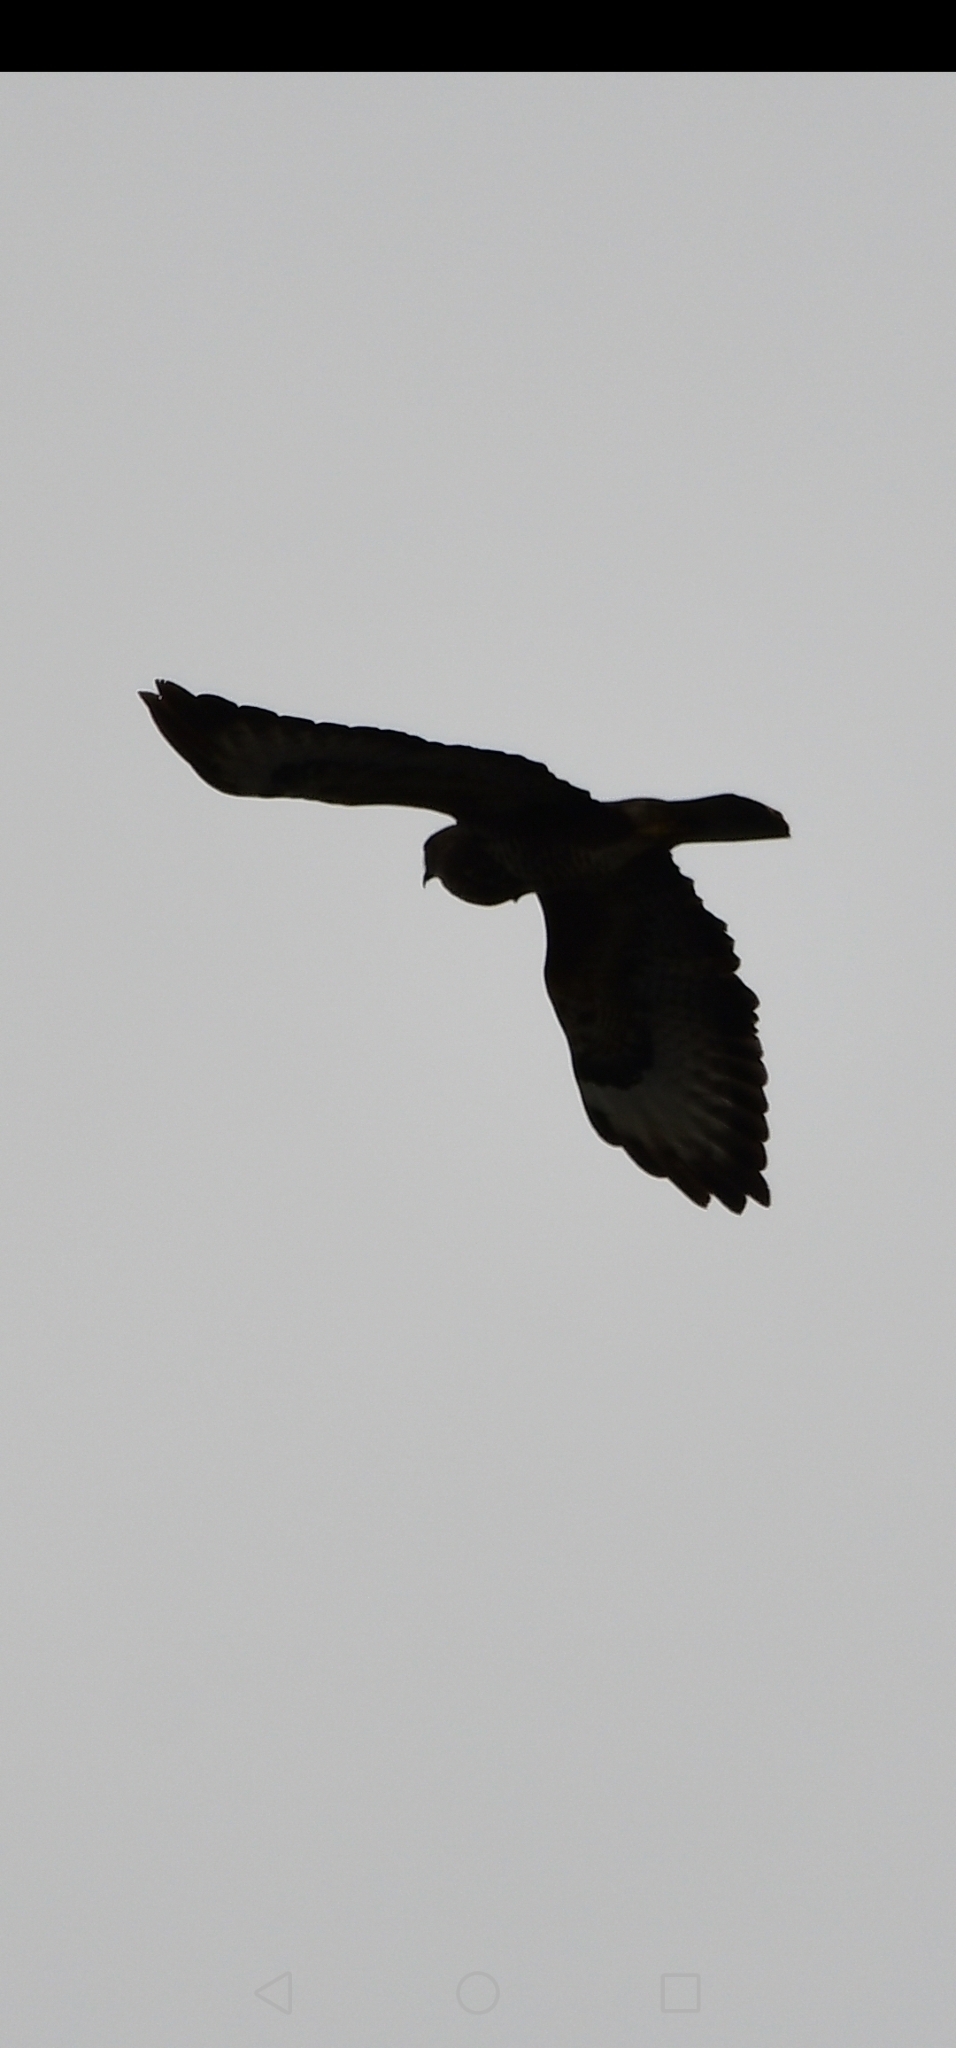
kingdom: Animalia
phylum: Chordata
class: Aves
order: Accipitriformes
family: Accipitridae
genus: Buteo
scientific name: Buteo buteo
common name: Common buzzard
